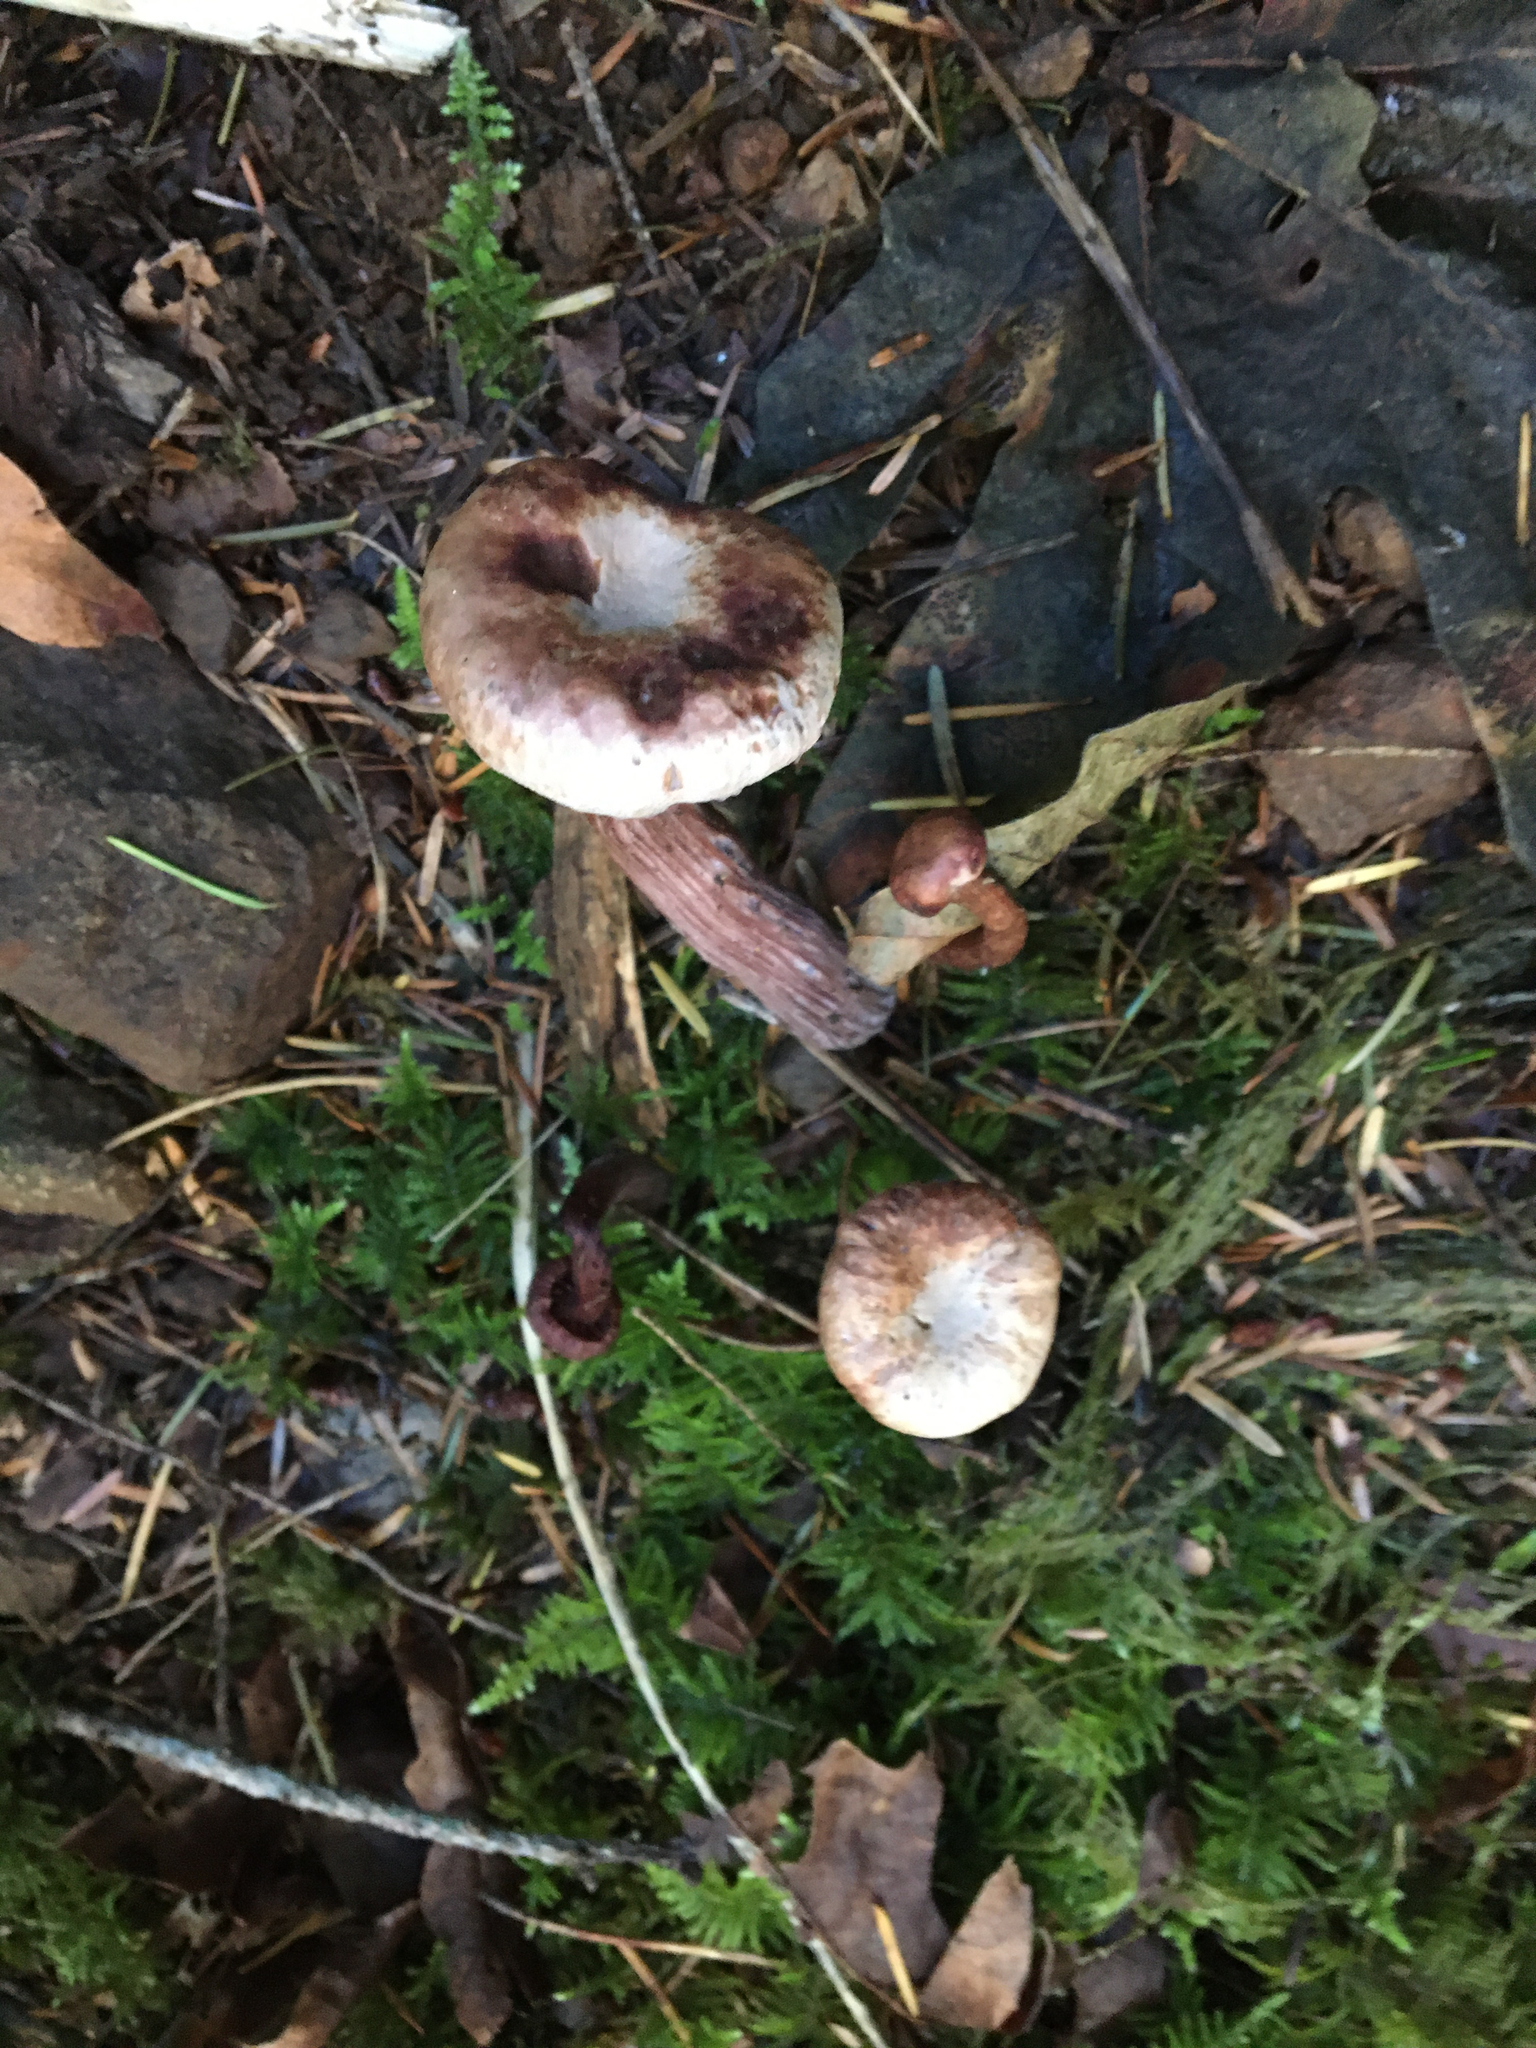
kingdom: Fungi
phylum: Basidiomycota
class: Agaricomycetes
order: Agaricales
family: Hydnangiaceae
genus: Laccaria
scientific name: Laccaria amethysteo-occidentalis
